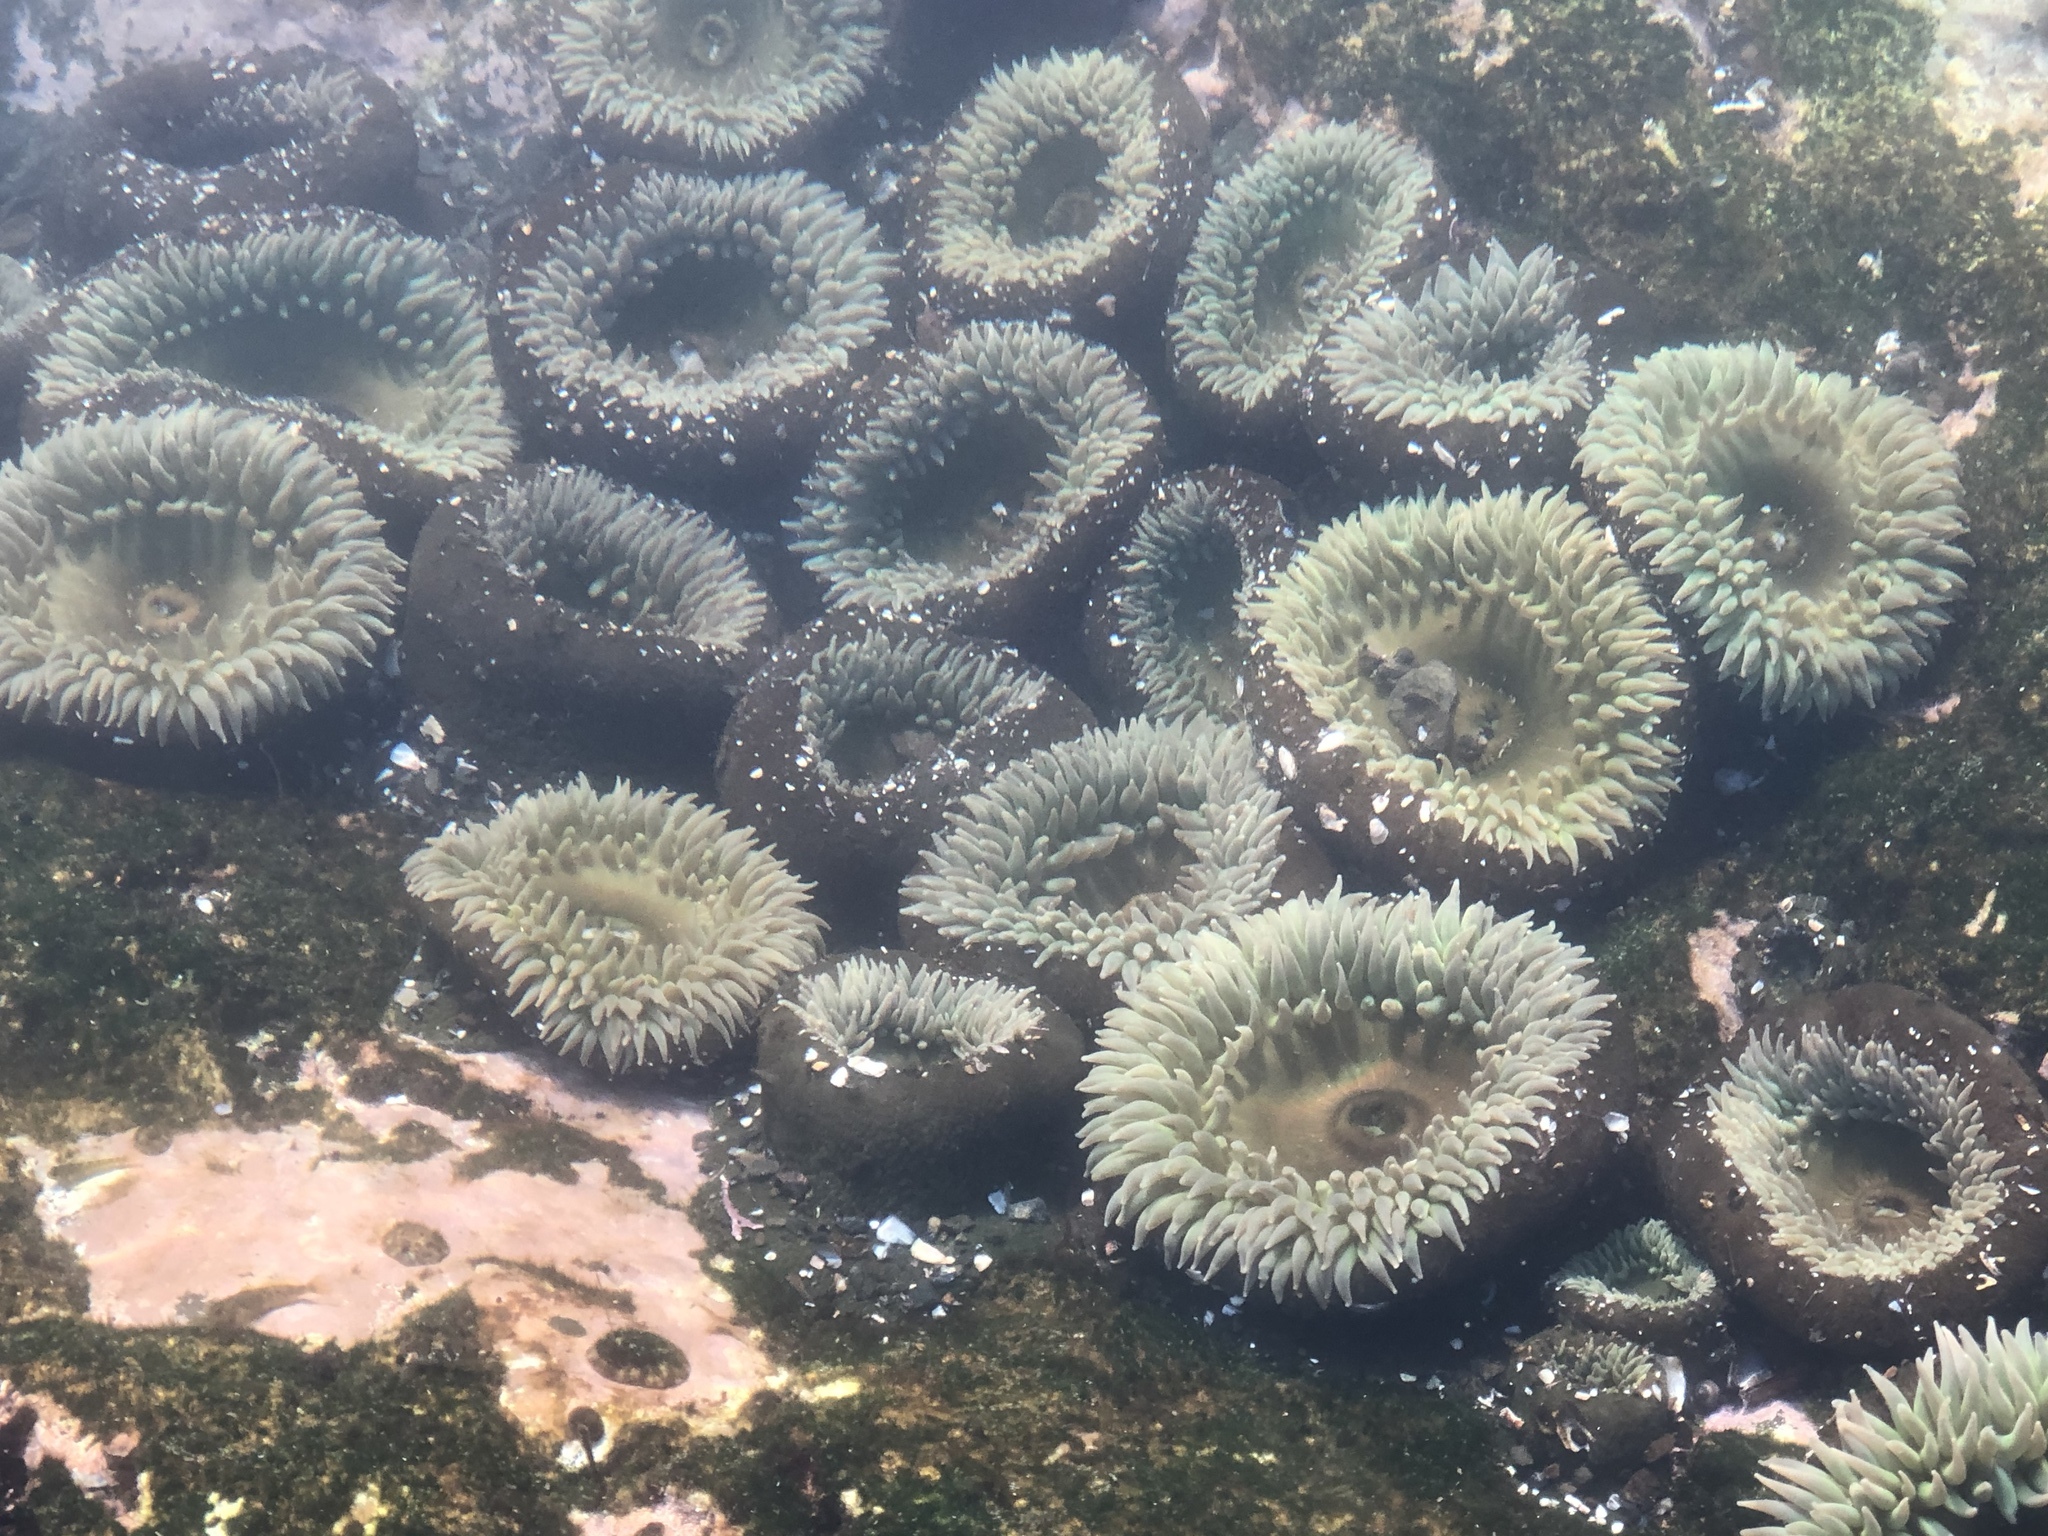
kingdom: Animalia
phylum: Cnidaria
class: Anthozoa
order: Actiniaria
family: Actiniidae
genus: Anthopleura
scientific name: Anthopleura xanthogrammica
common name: Giant green anemone
